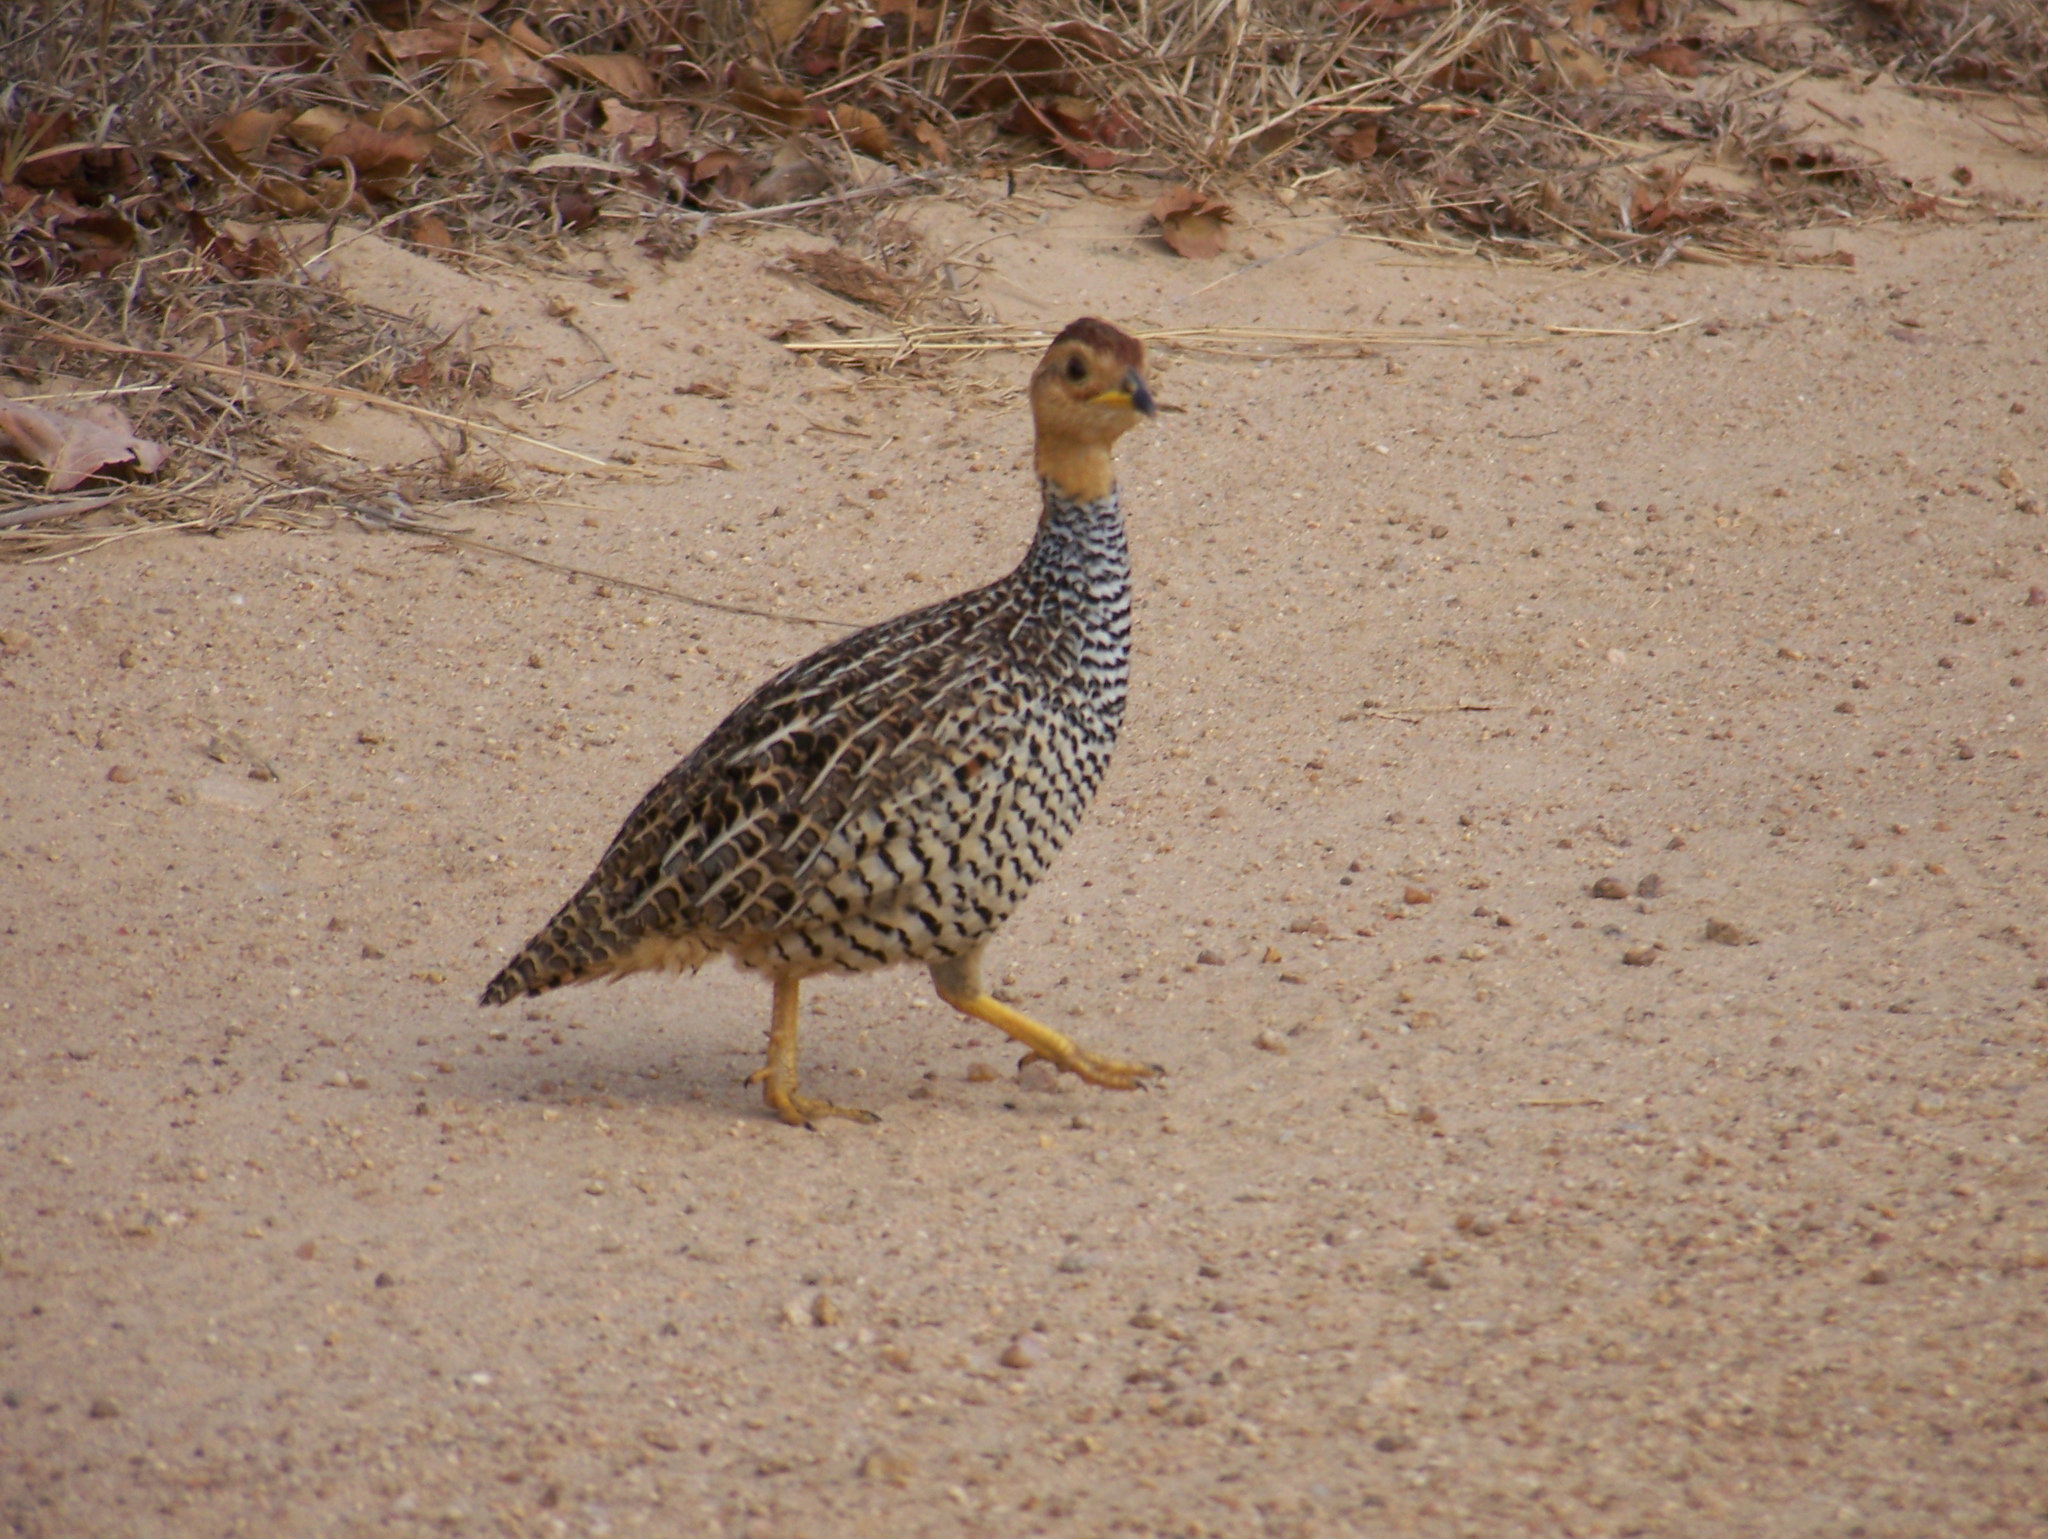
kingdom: Animalia
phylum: Chordata
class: Aves
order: Galliformes
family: Phasianidae
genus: Campocolinus
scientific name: Campocolinus coqui
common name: Coqui francolin
